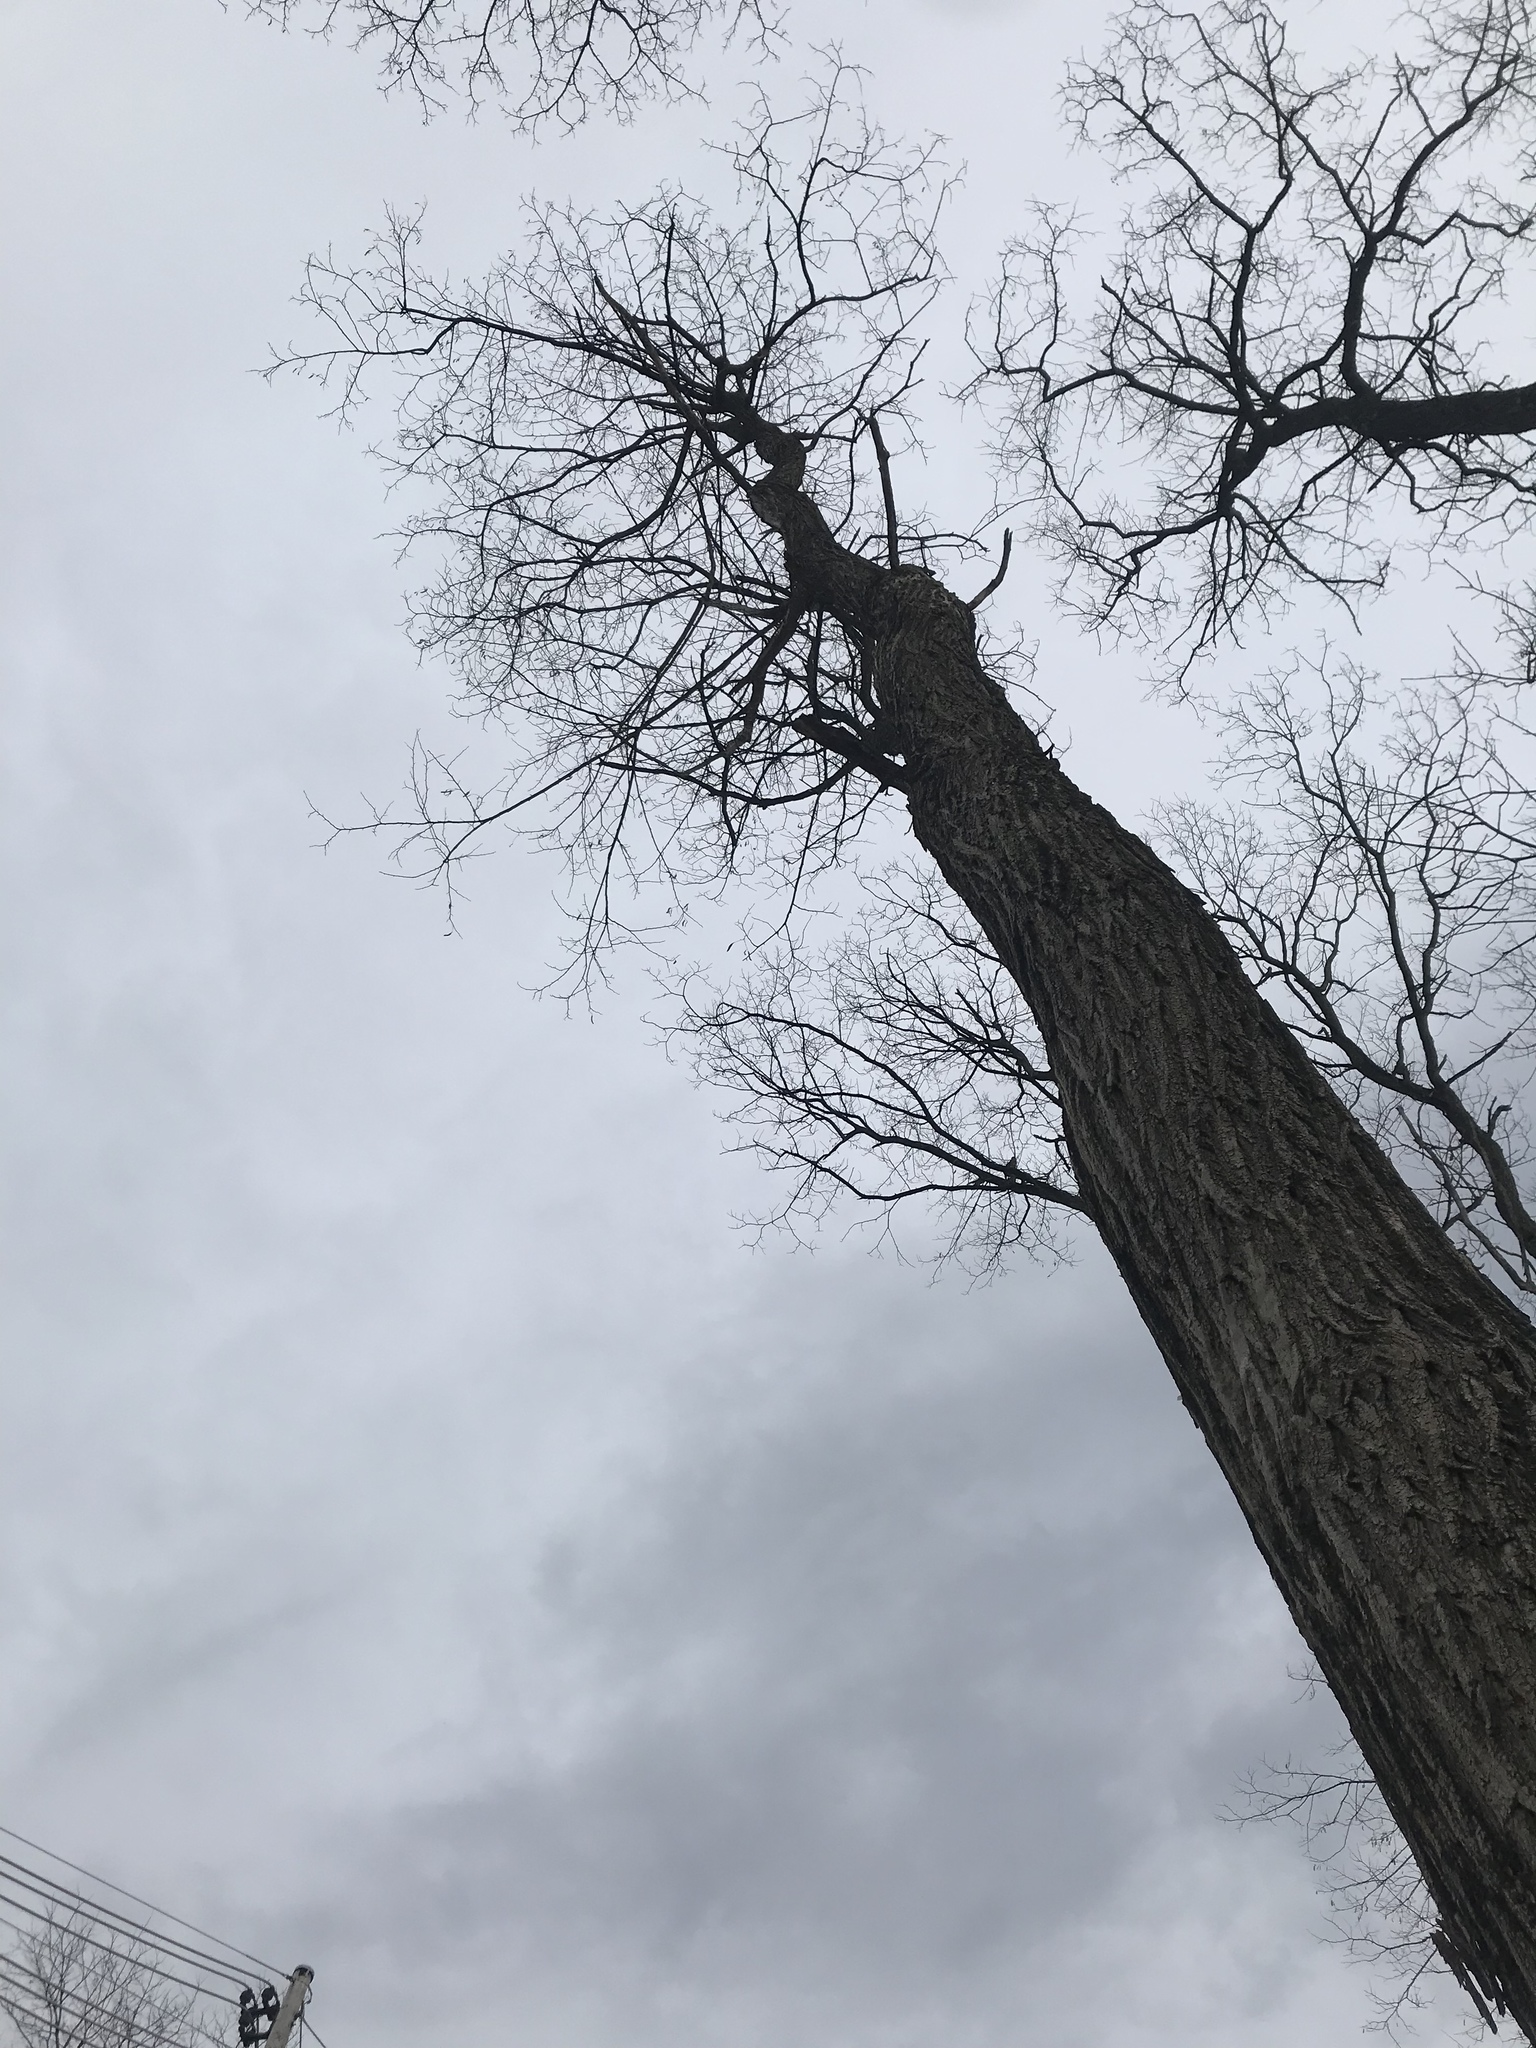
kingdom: Plantae
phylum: Tracheophyta
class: Magnoliopsida
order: Fabales
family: Fabaceae
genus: Robinia
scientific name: Robinia pseudoacacia
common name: Black locust
